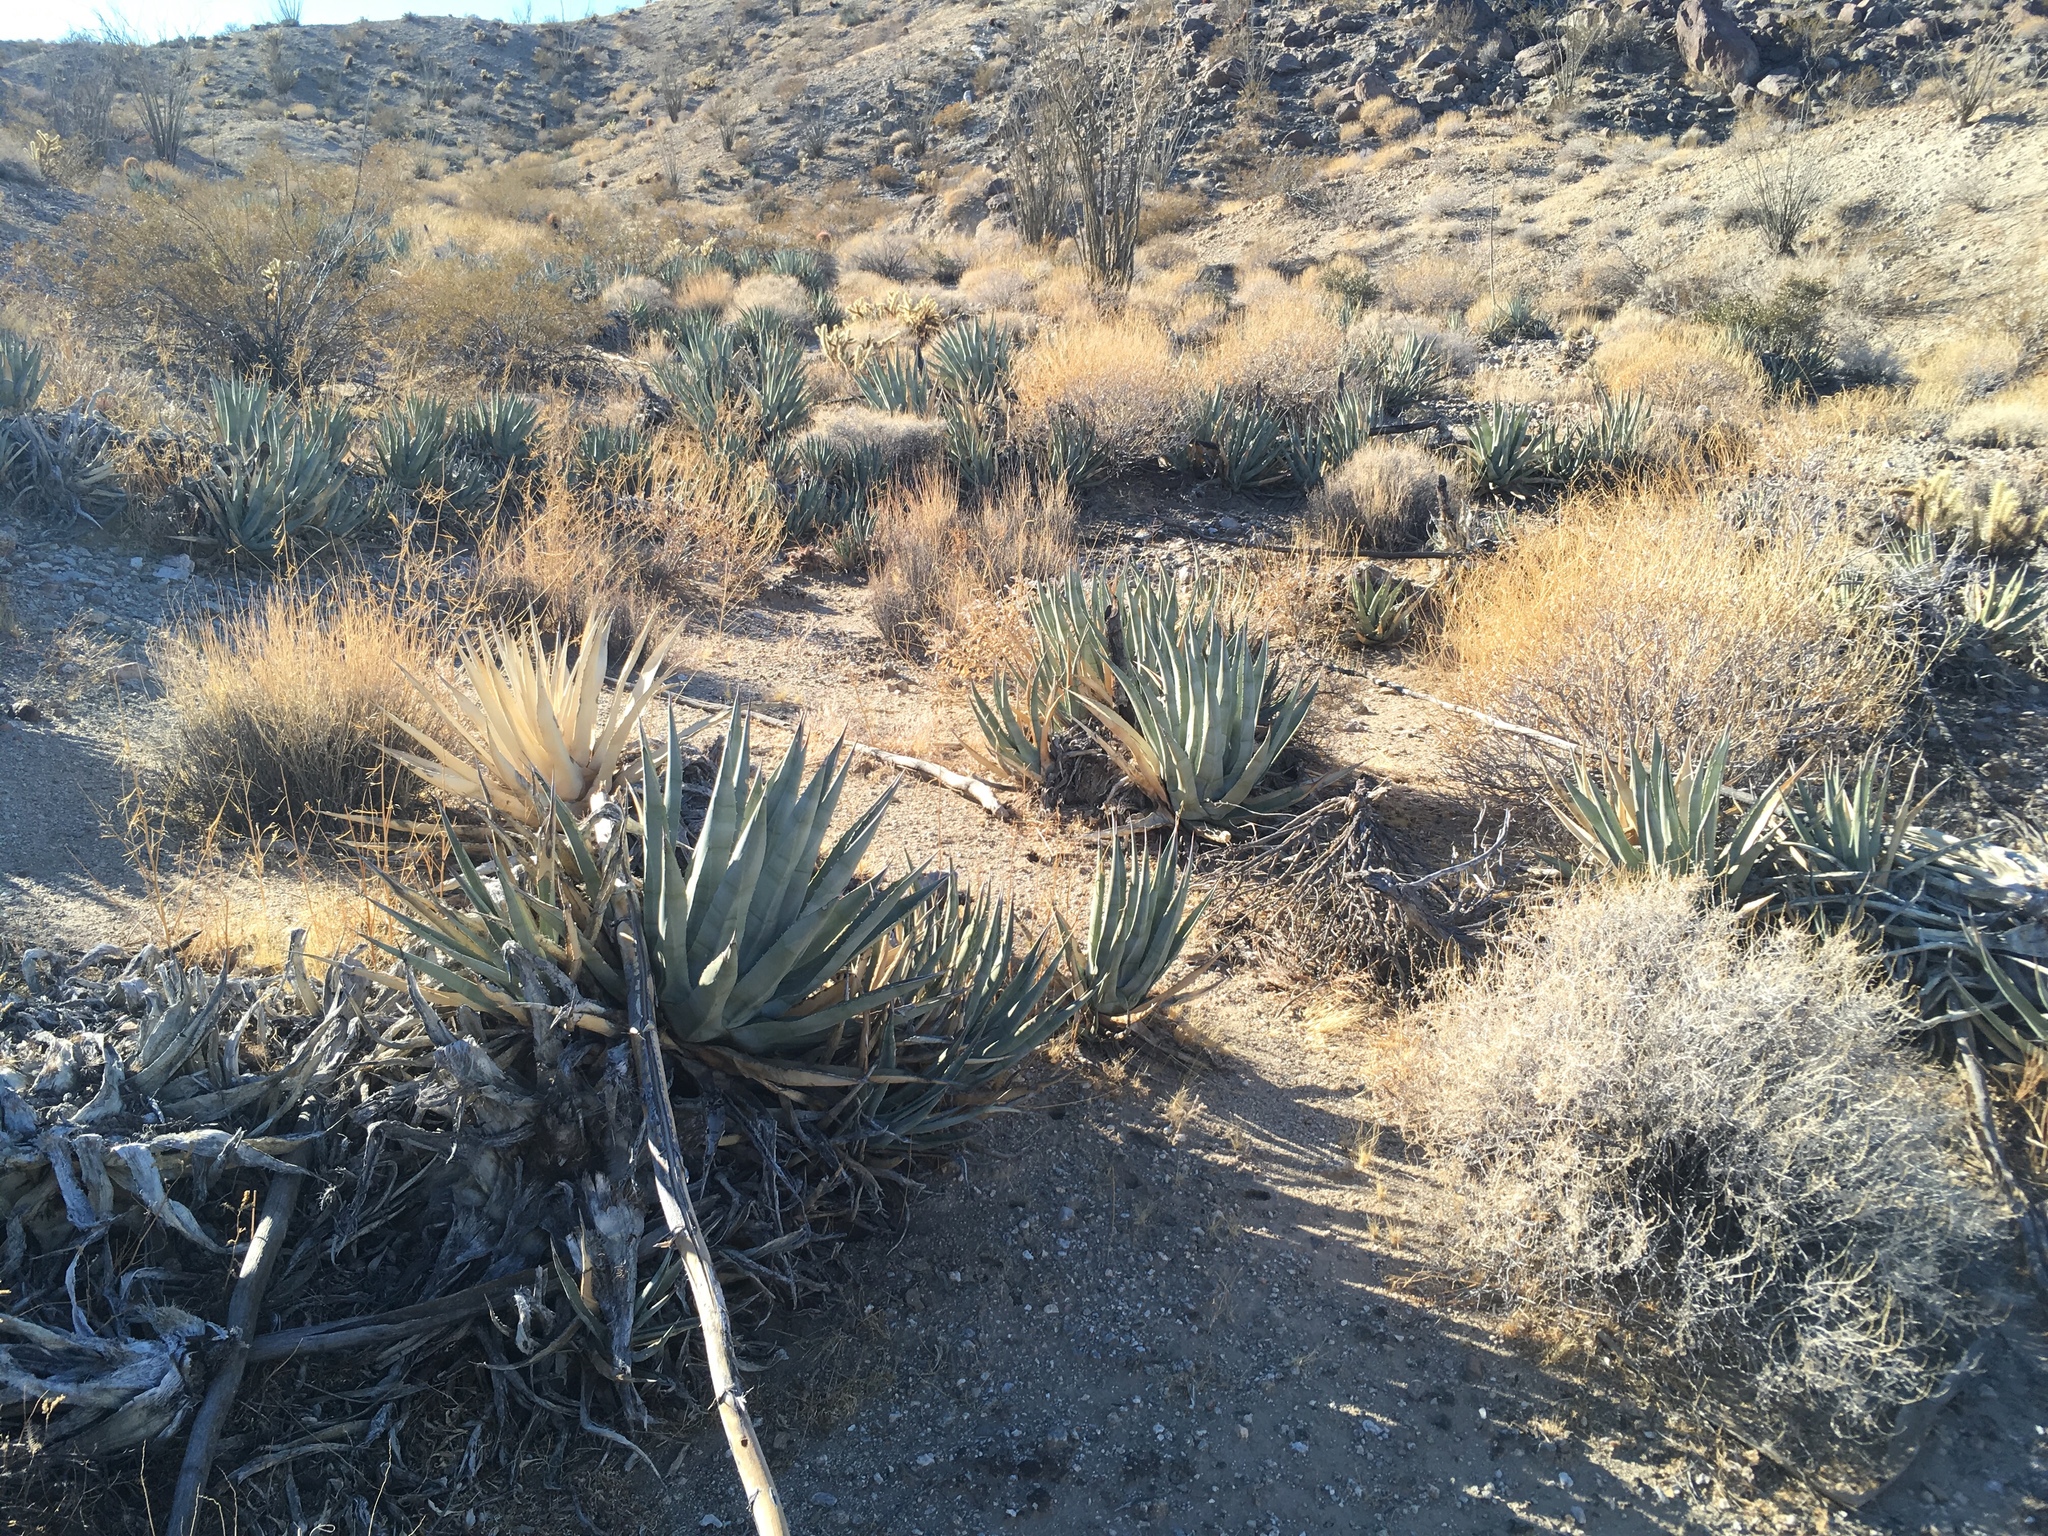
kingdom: Plantae
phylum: Tracheophyta
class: Liliopsida
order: Asparagales
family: Asparagaceae
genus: Agave
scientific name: Agave deserti
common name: Desert agave
